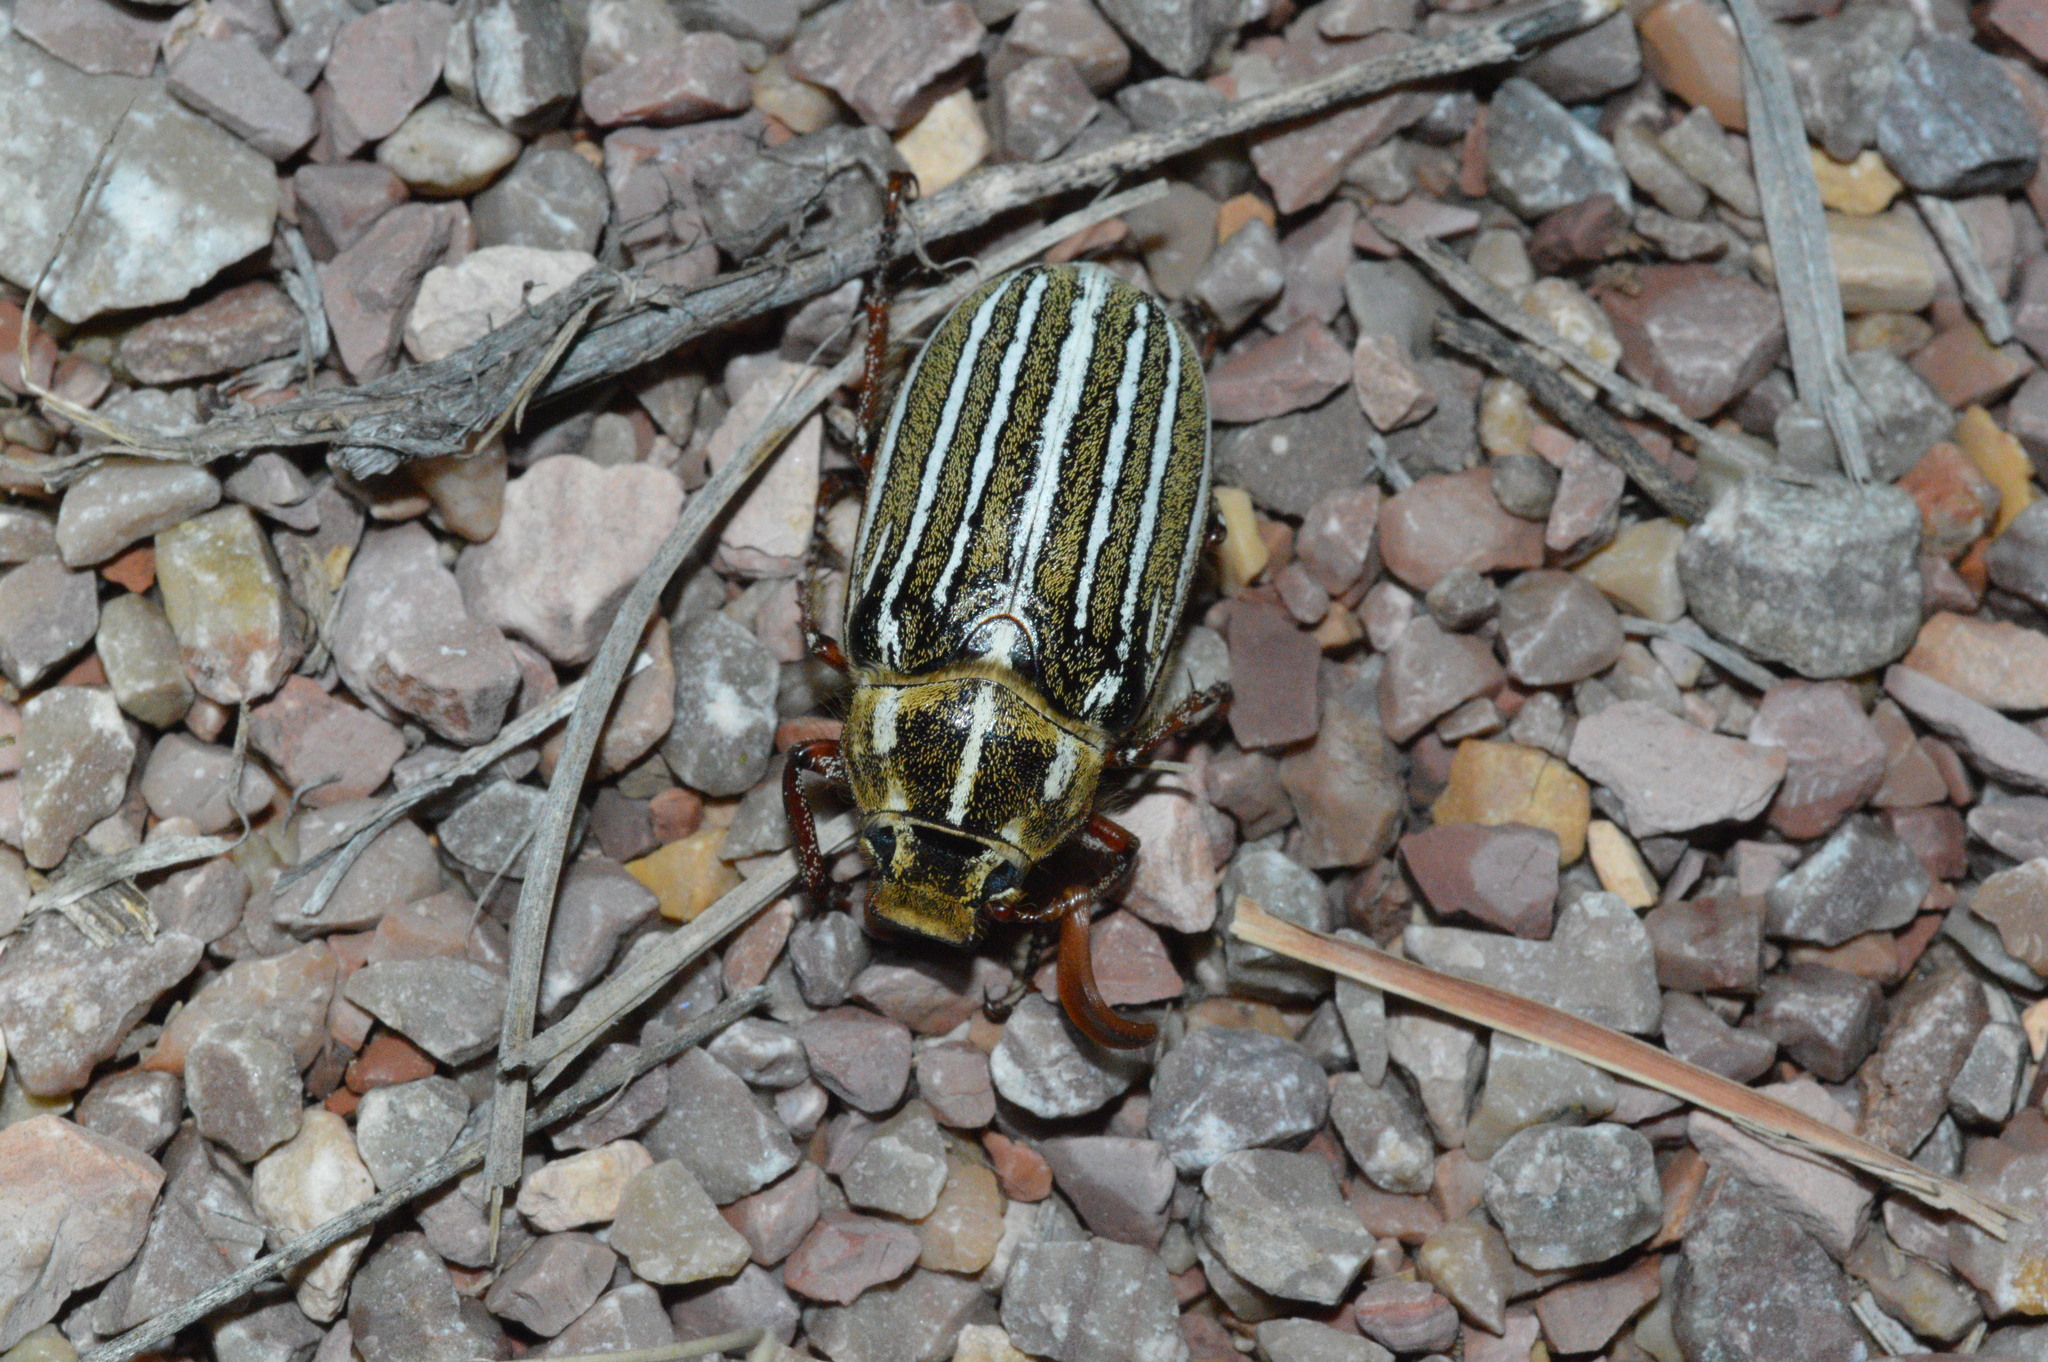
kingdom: Animalia
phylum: Arthropoda
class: Insecta
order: Coleoptera
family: Scarabaeidae
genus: Polyphylla
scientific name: Polyphylla decemlineata
